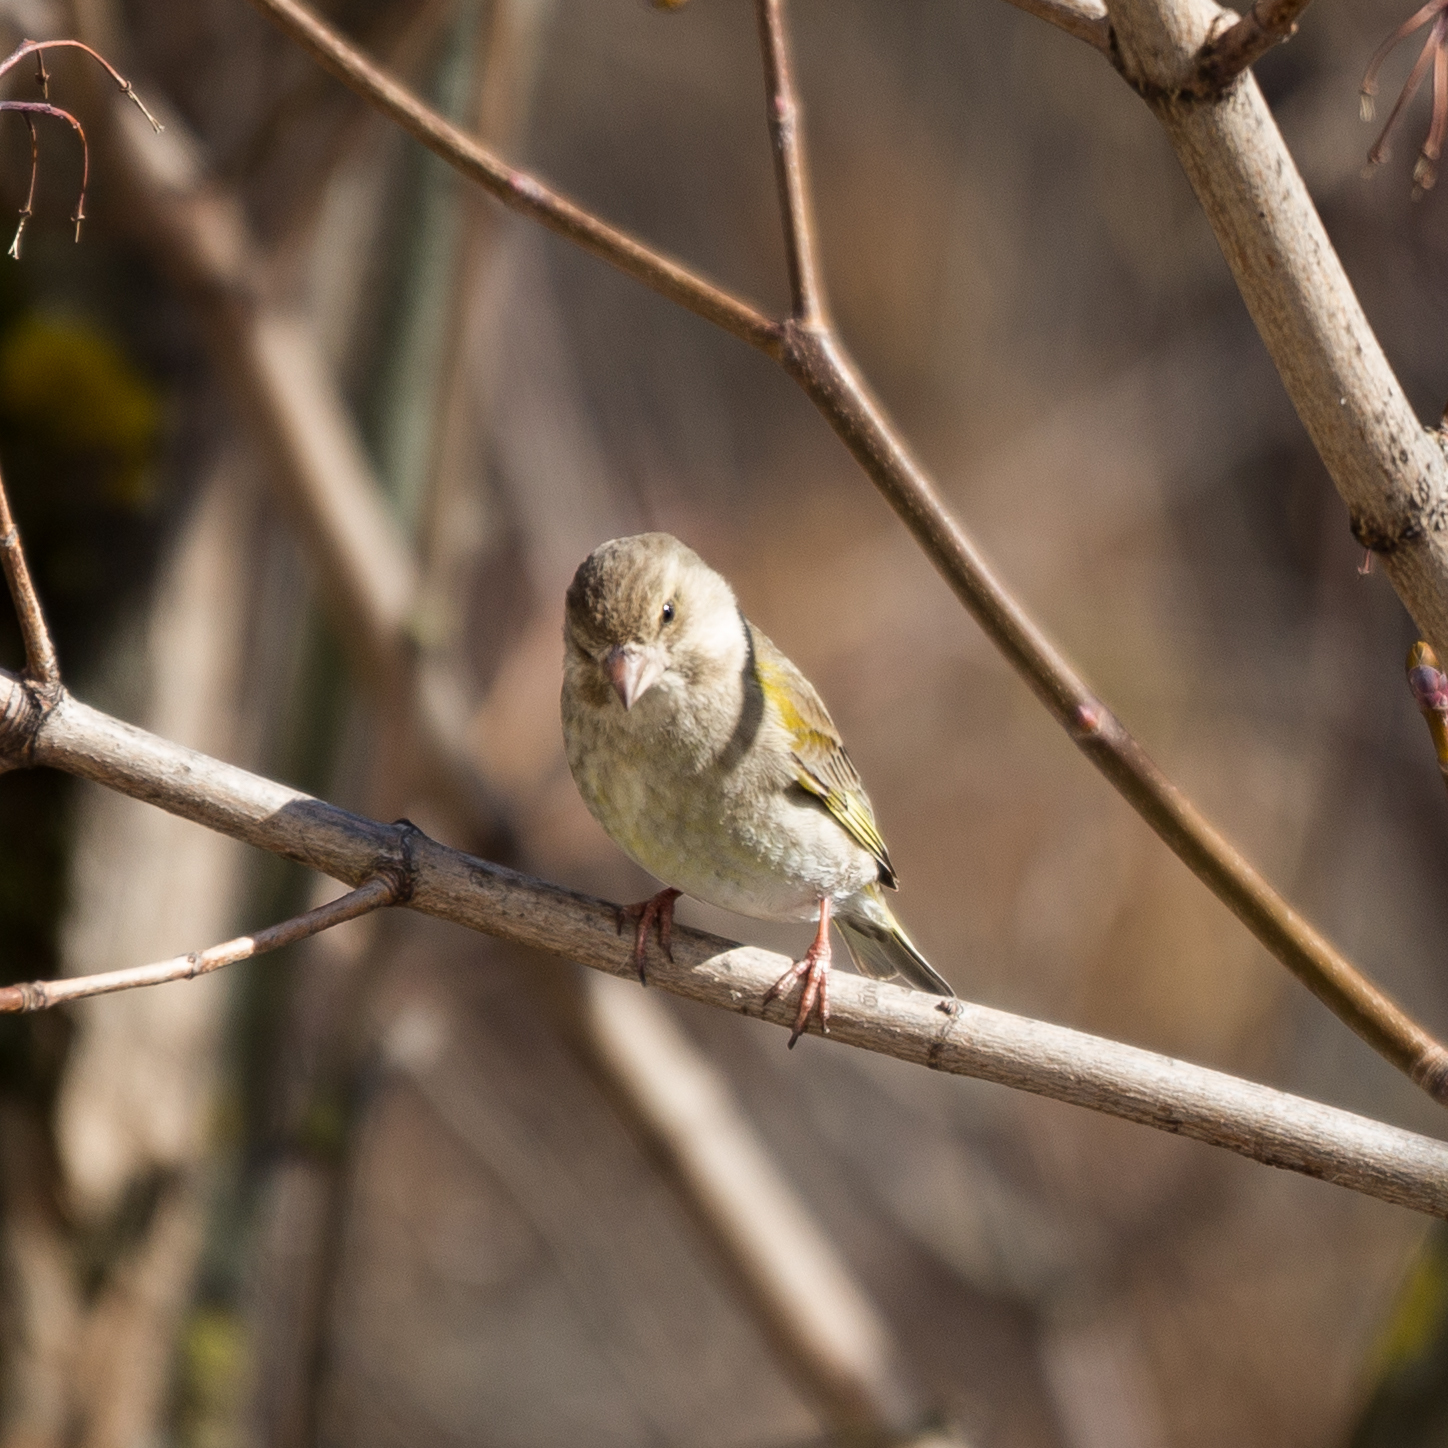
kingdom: Plantae
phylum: Tracheophyta
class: Liliopsida
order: Poales
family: Poaceae
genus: Chloris
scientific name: Chloris chloris
